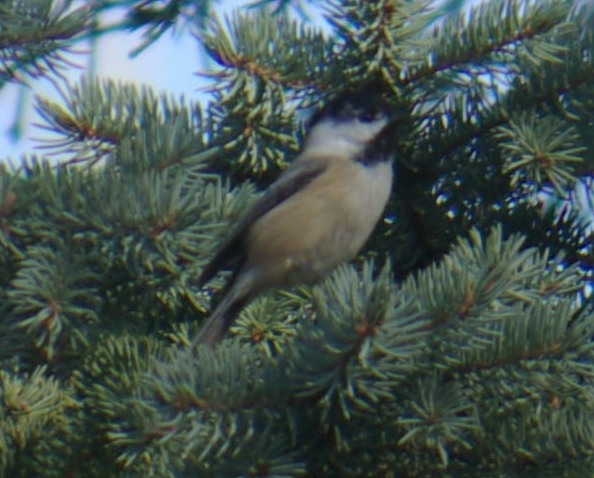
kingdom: Animalia
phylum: Chordata
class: Aves
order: Passeriformes
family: Paridae
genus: Poecile
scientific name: Poecile atricapillus
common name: Black-capped chickadee
